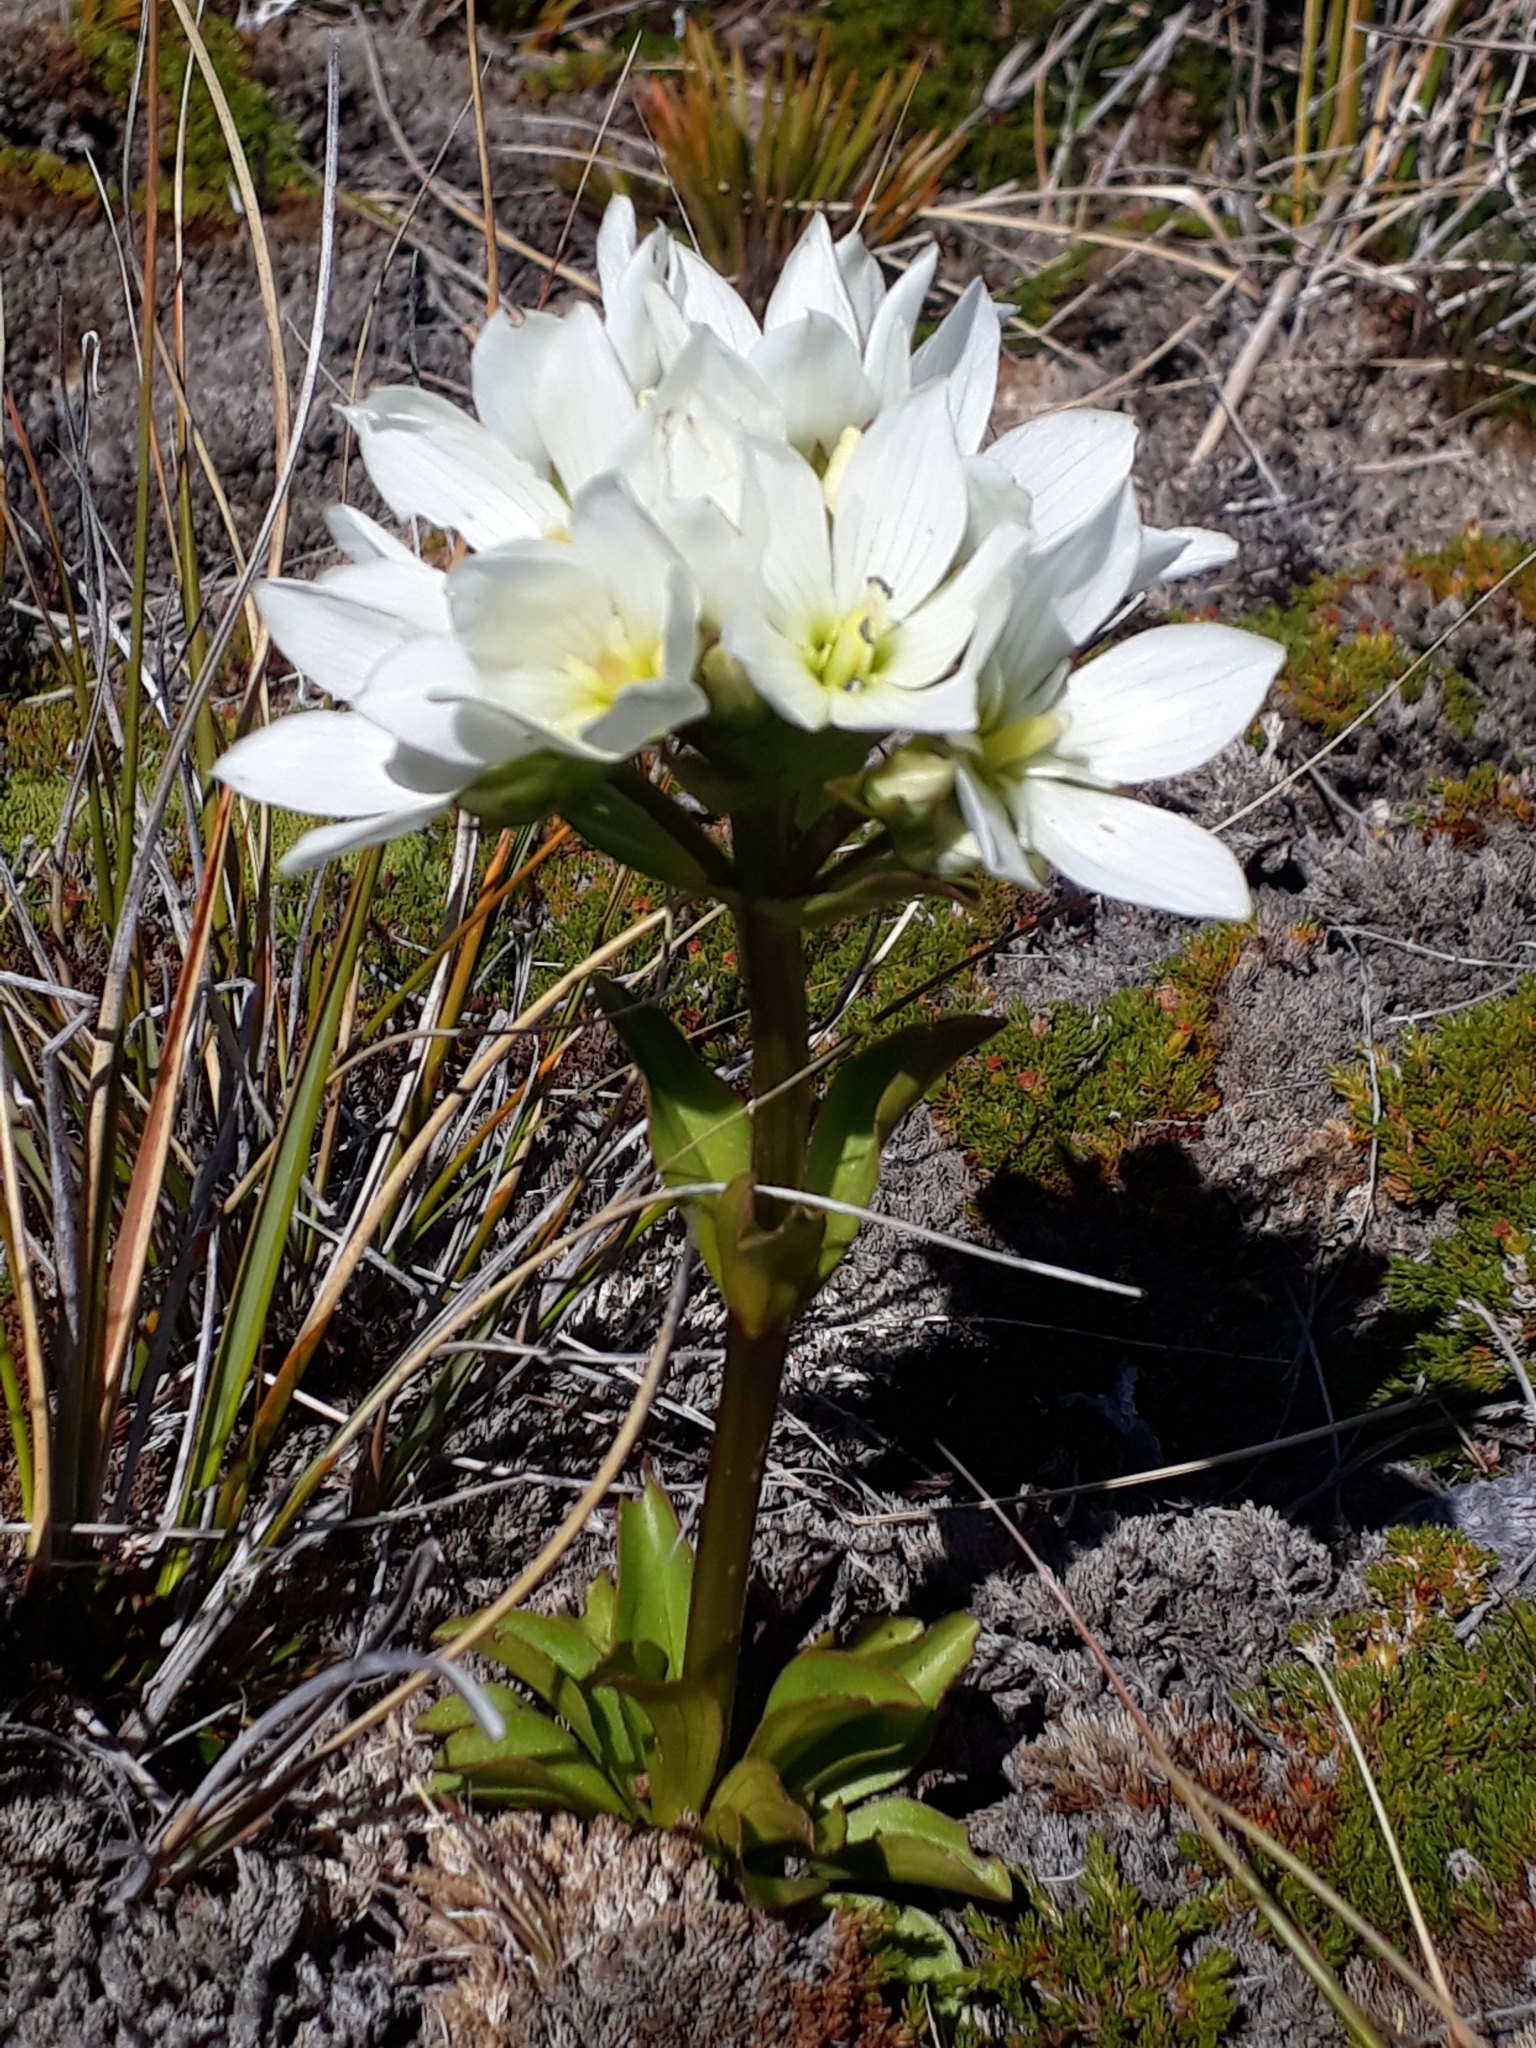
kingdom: Plantae
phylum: Tracheophyta
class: Magnoliopsida
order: Gentianales
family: Gentianaceae
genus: Gentianella
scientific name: Gentianella corymbifera
